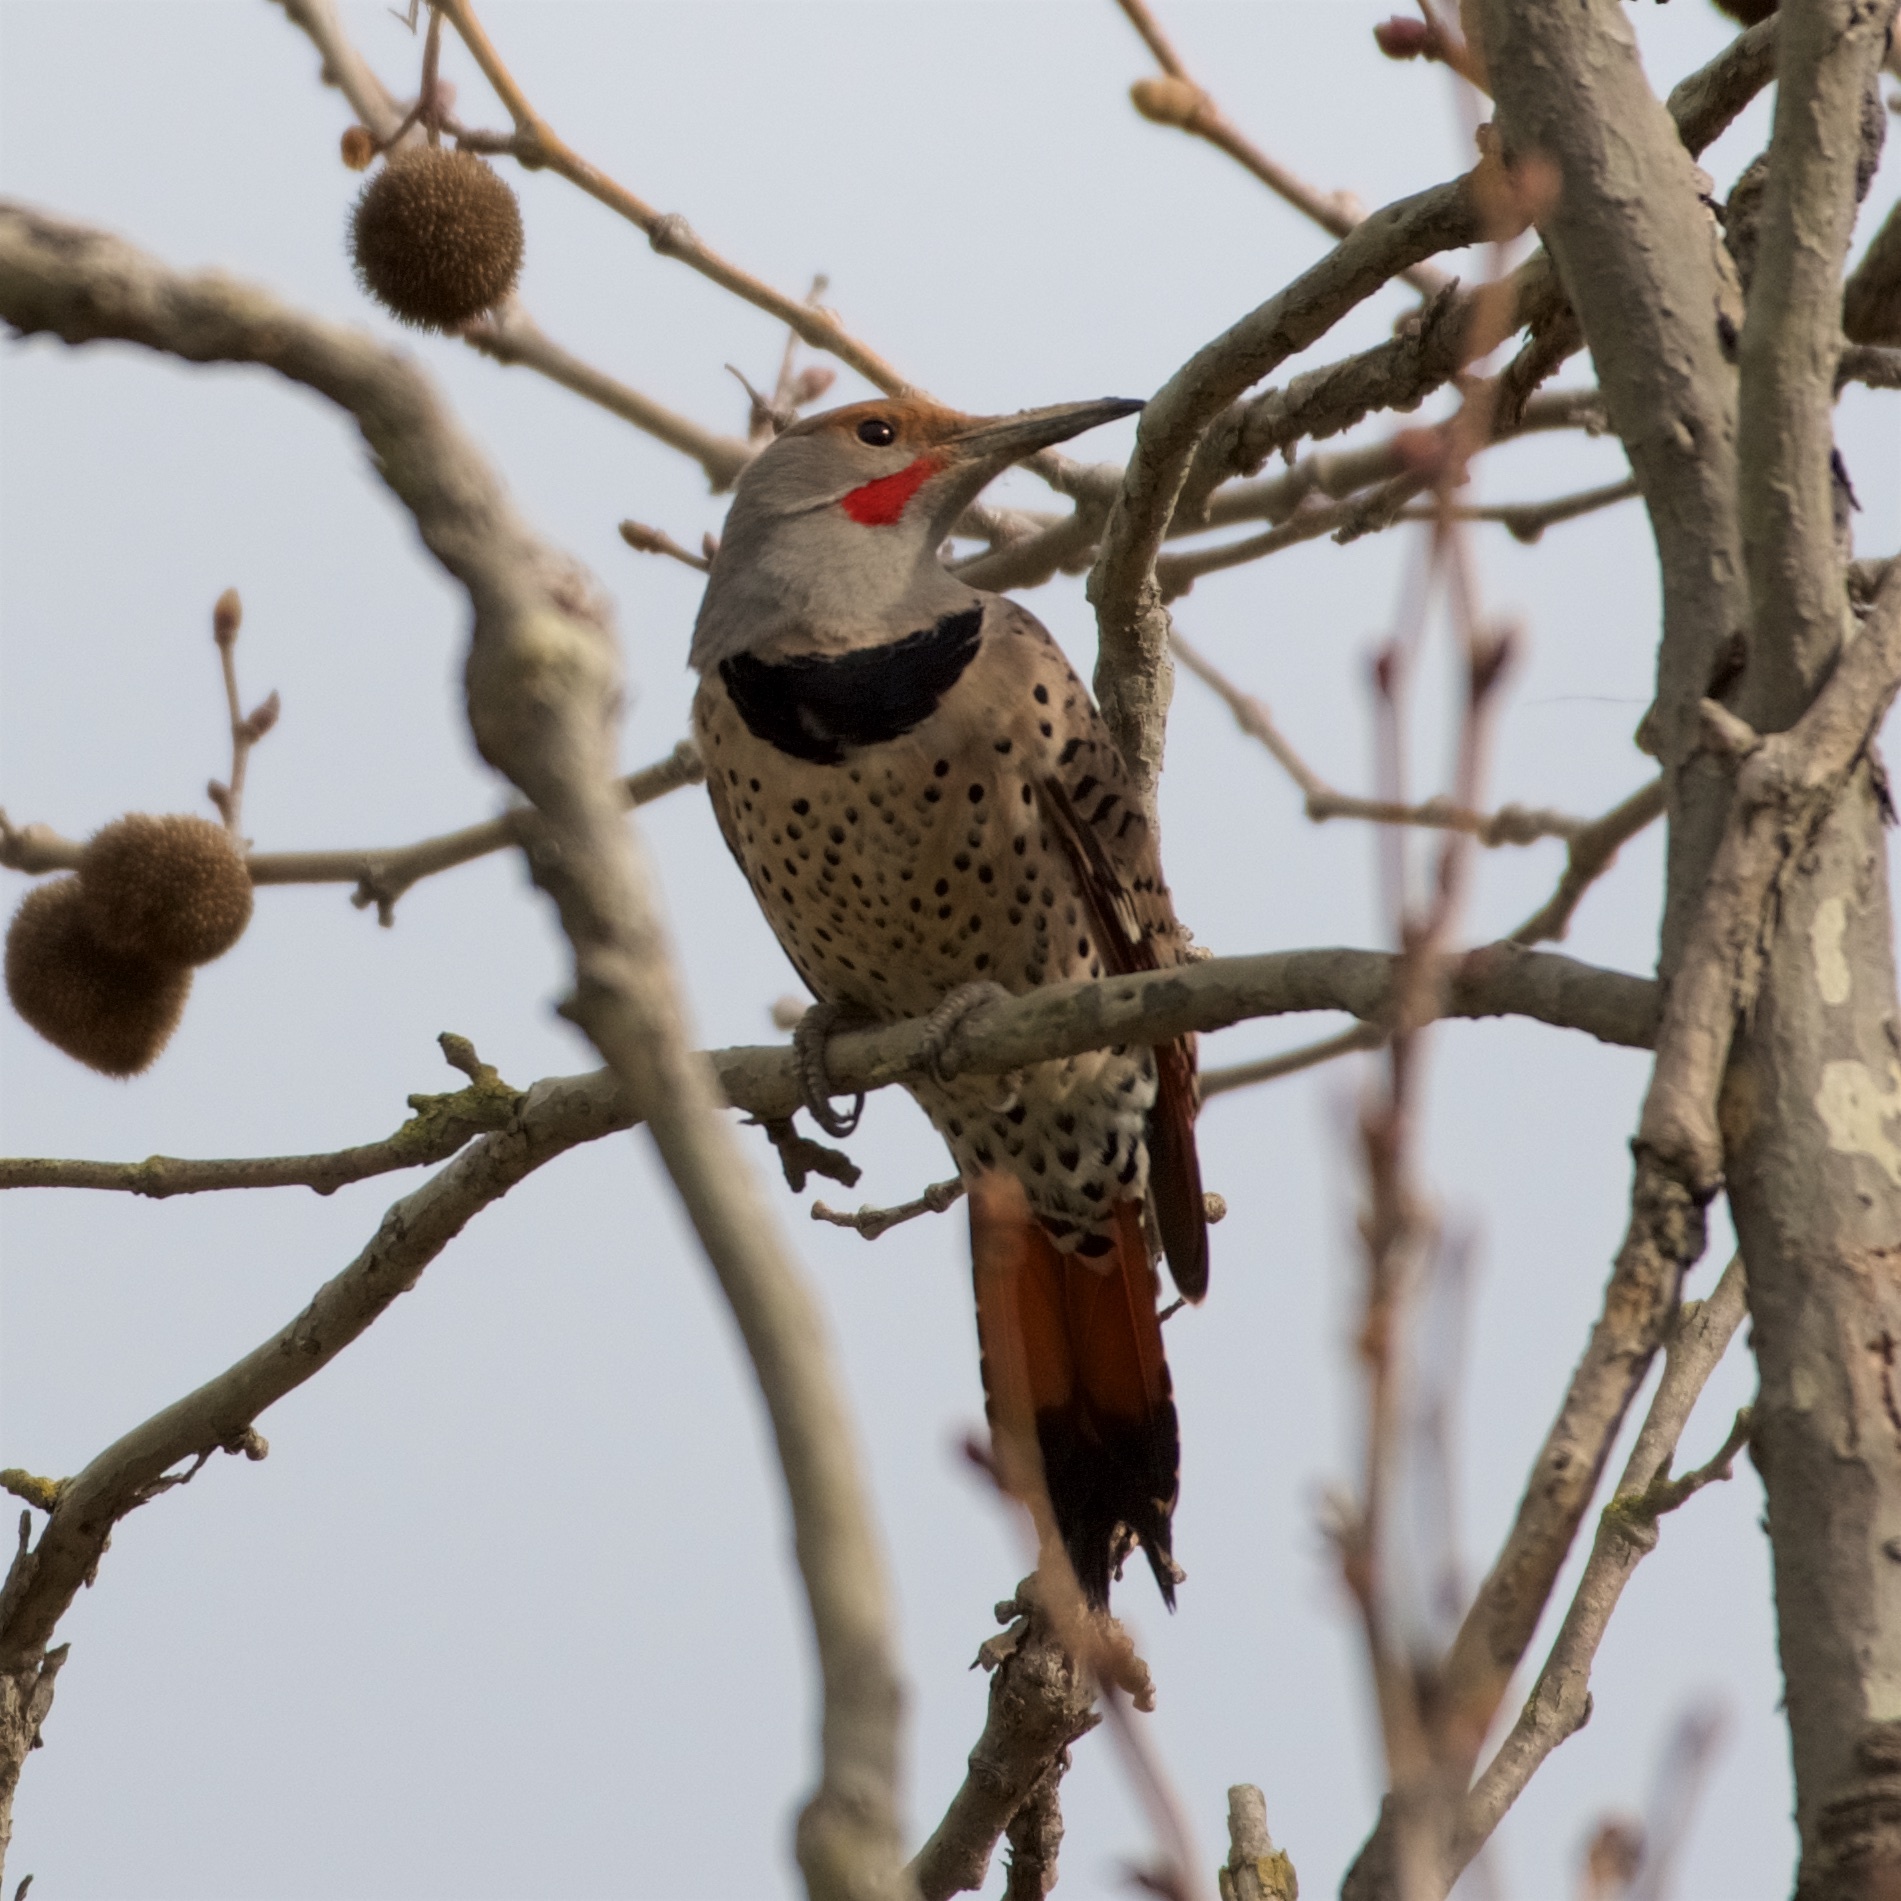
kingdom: Animalia
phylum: Chordata
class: Aves
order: Piciformes
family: Picidae
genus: Colaptes
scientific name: Colaptes auratus
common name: Northern flicker
